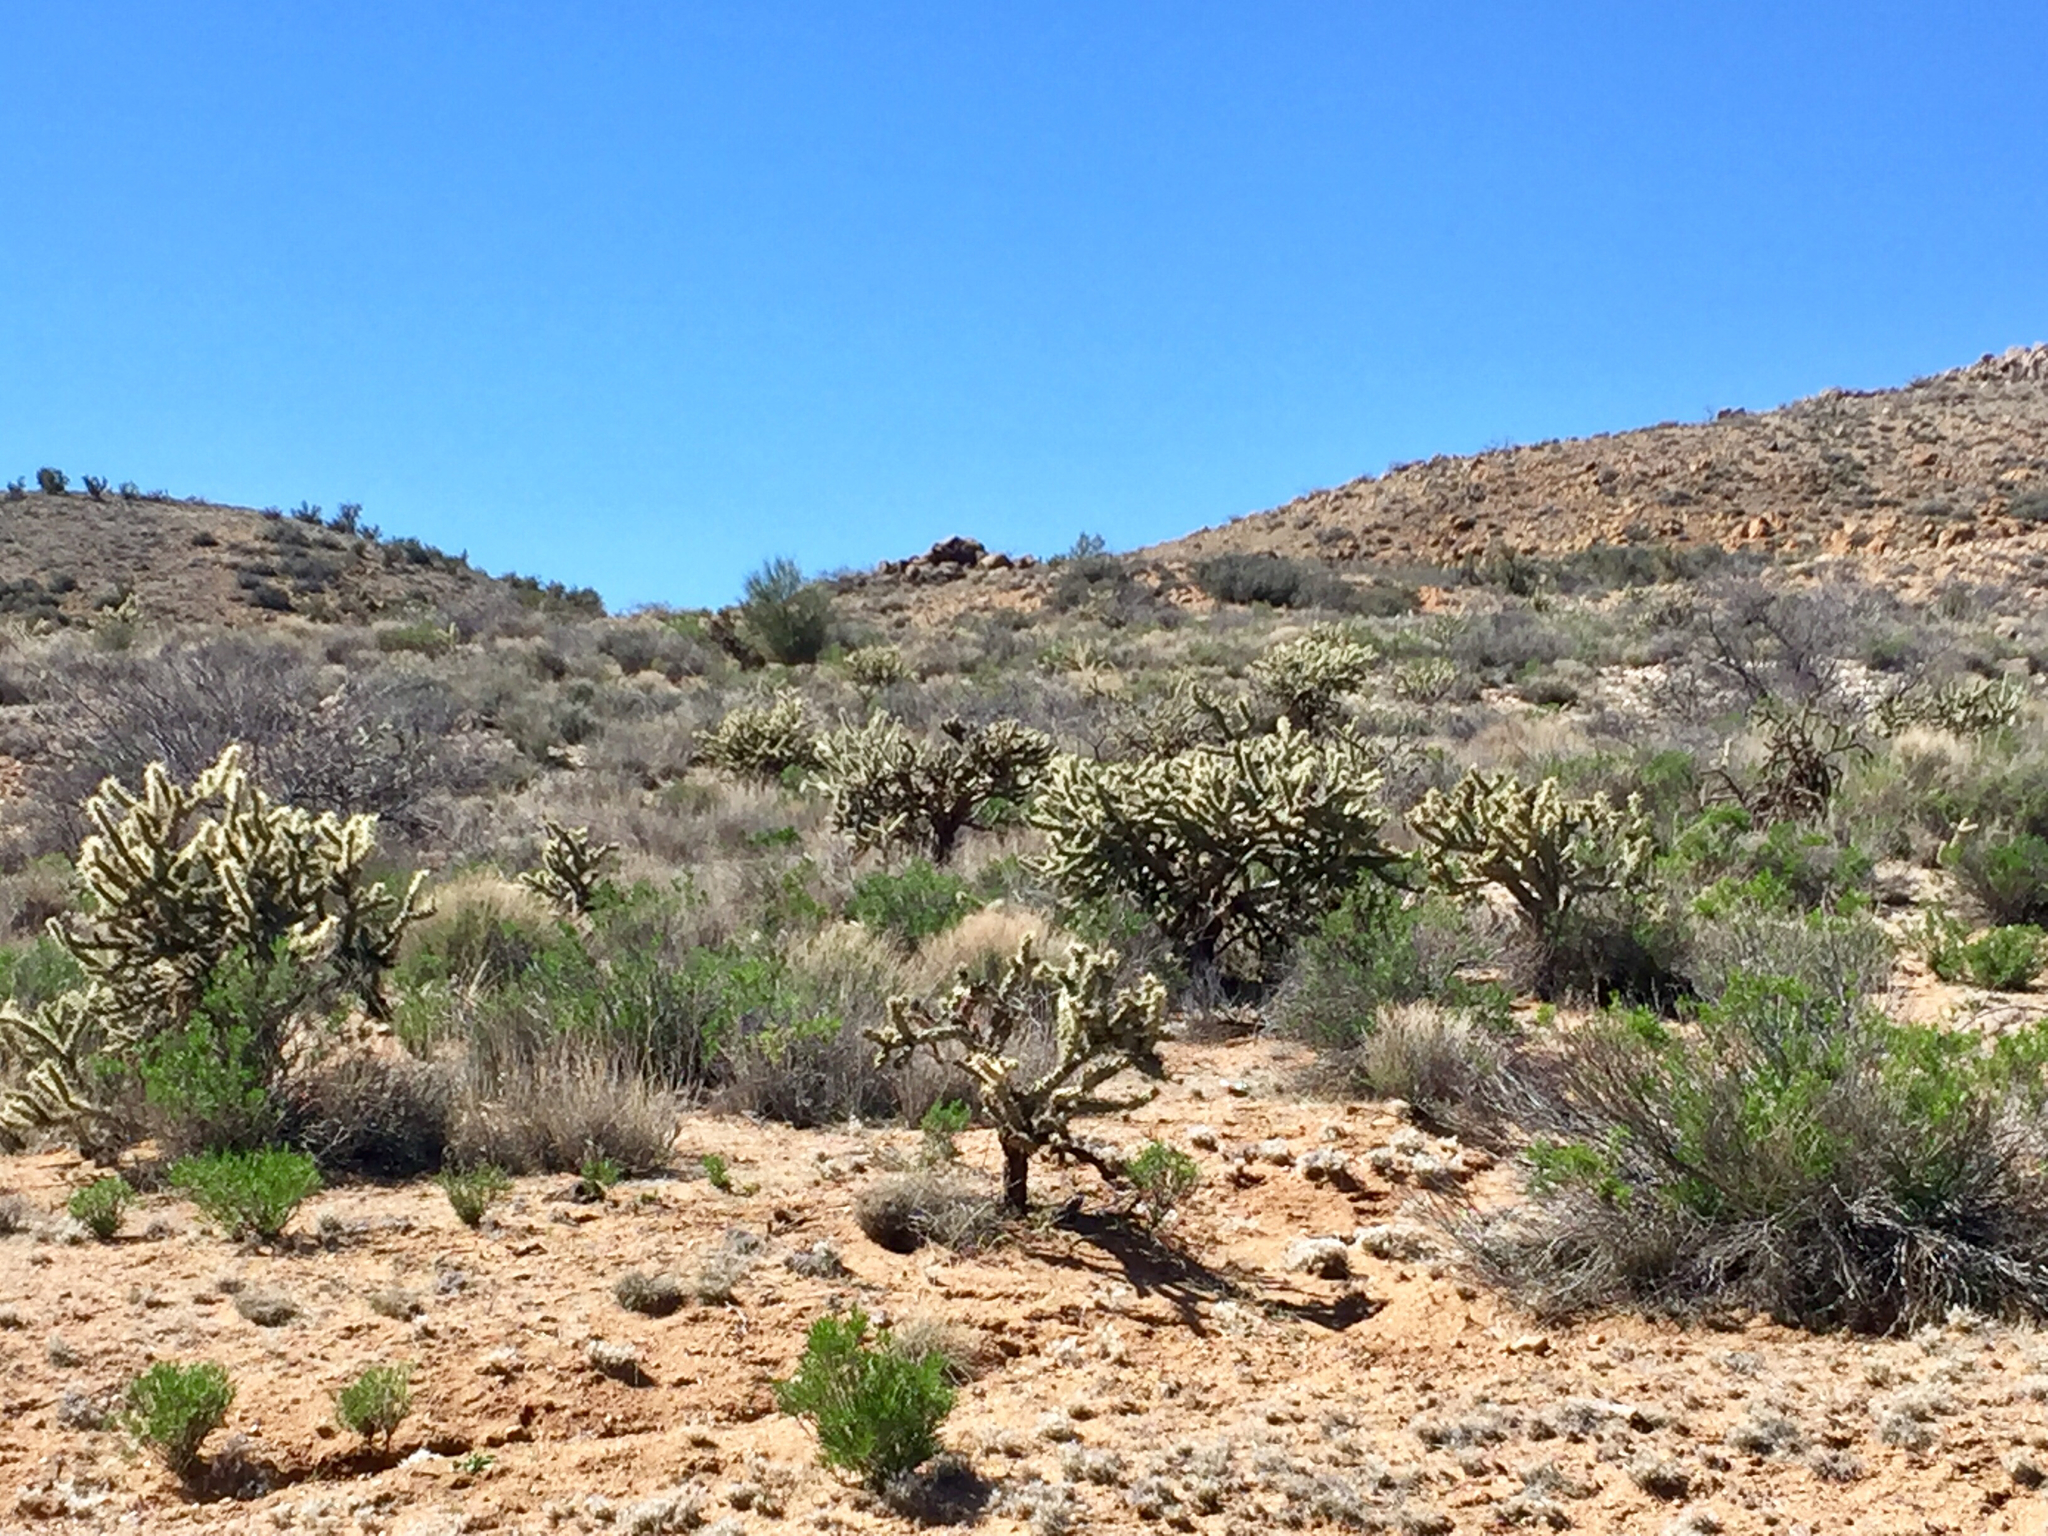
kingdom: Plantae
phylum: Tracheophyta
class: Magnoliopsida
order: Caryophyllales
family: Cactaceae
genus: Cylindropuntia
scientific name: Cylindropuntia acanthocarpa
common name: Buckhorn cholla
